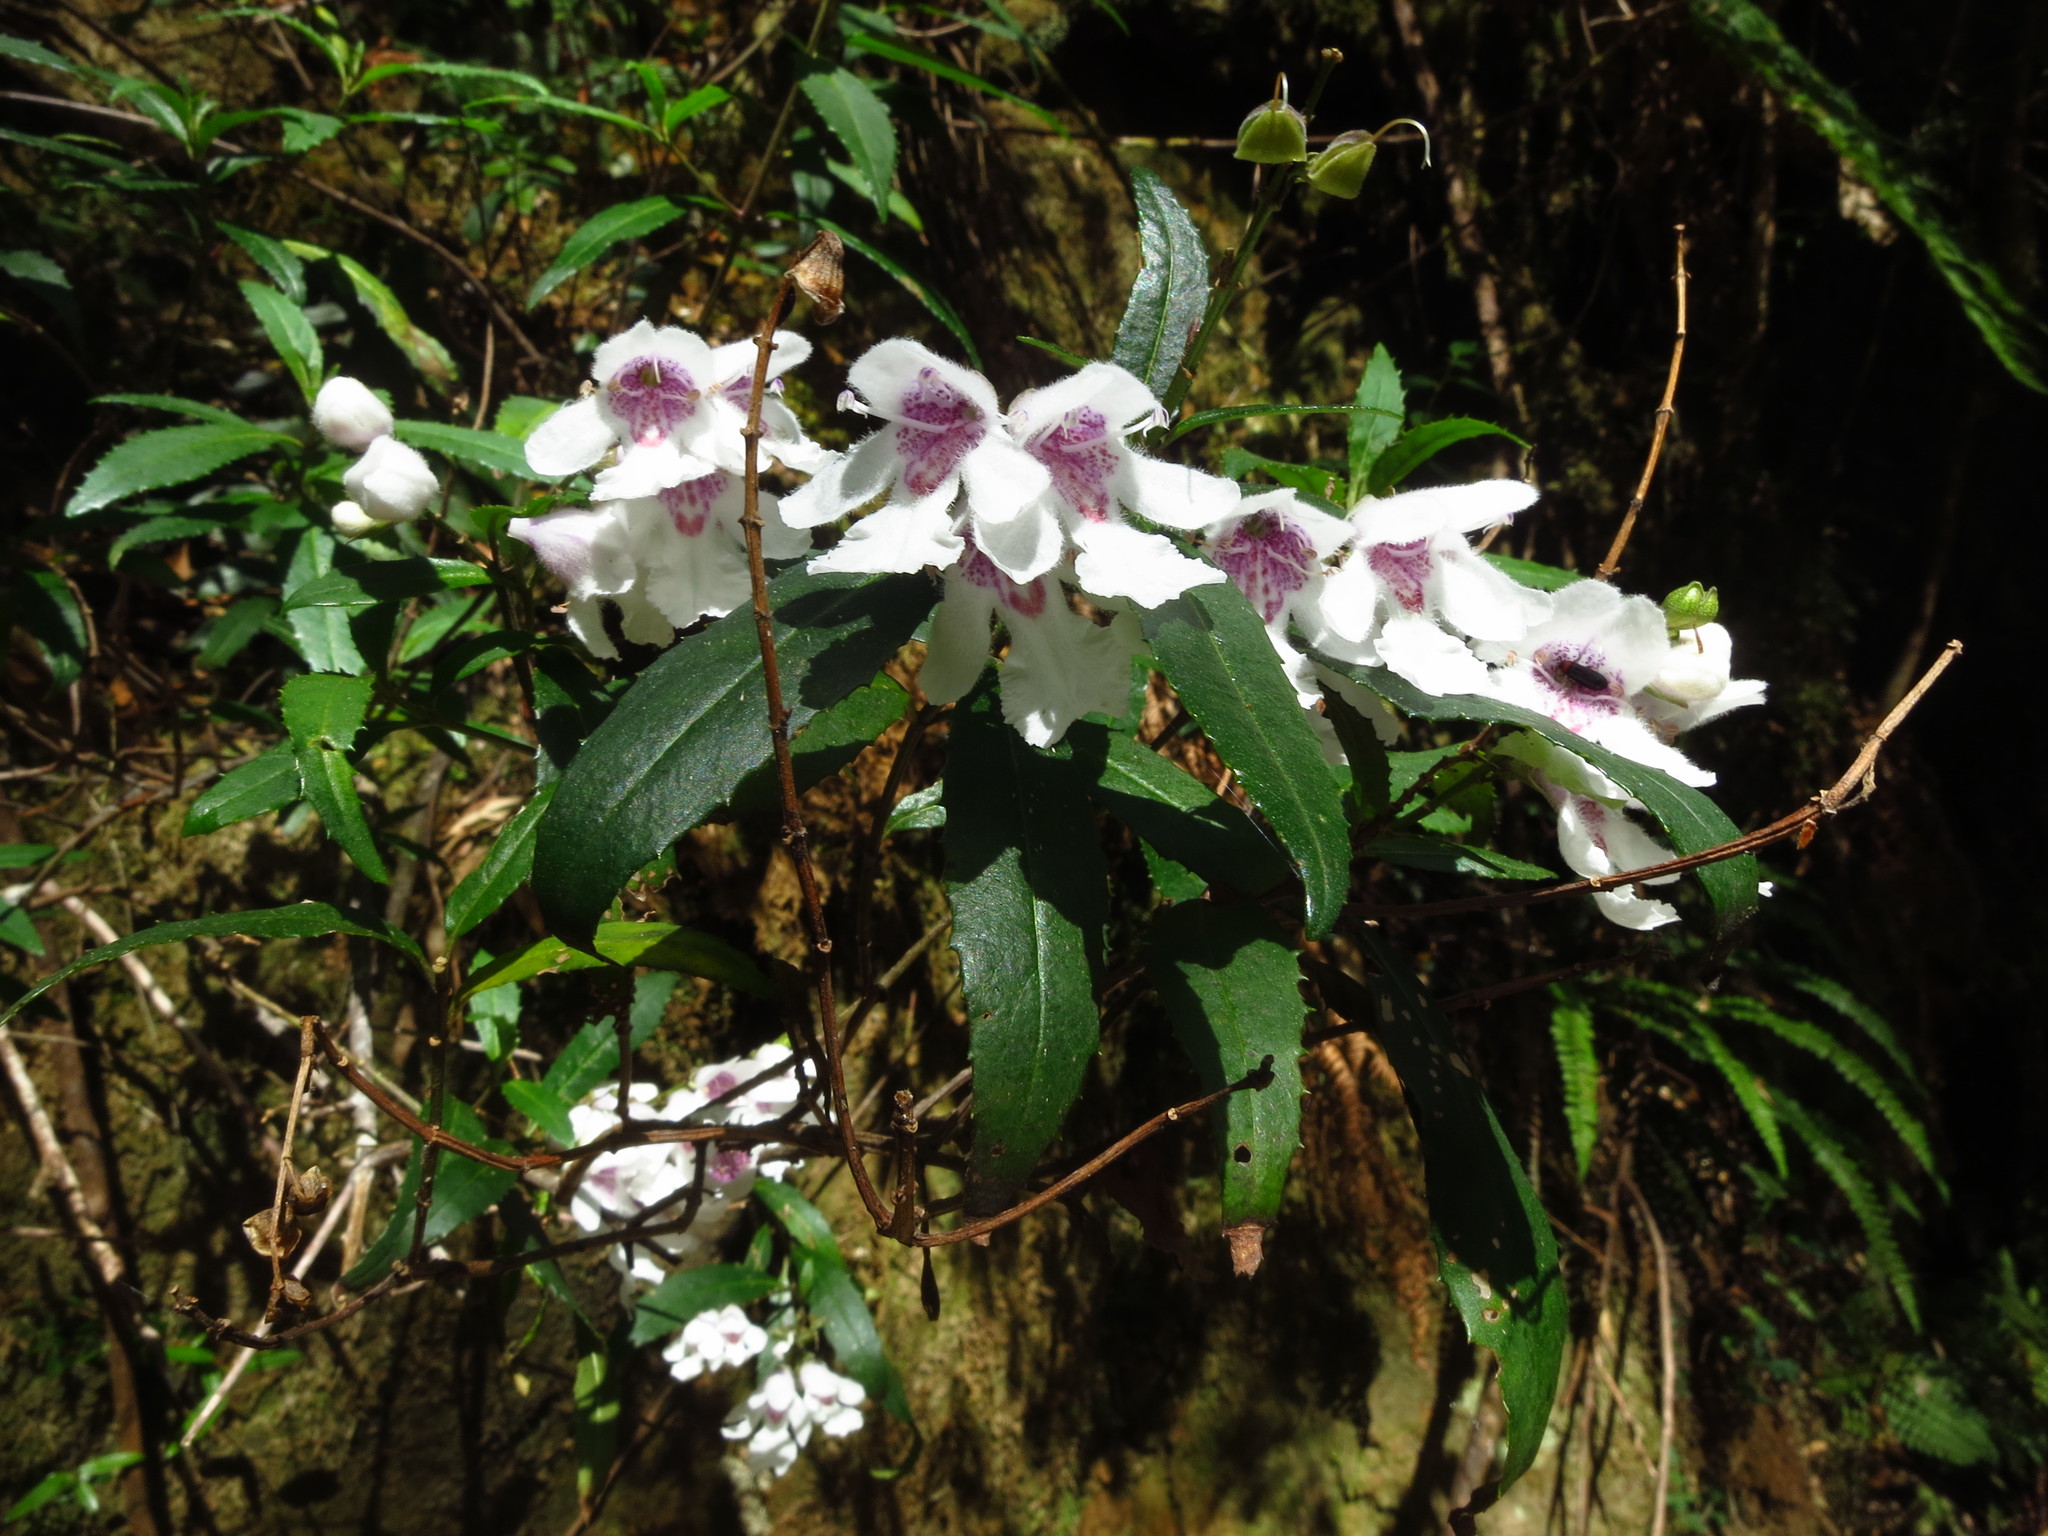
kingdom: Plantae
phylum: Tracheophyta
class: Magnoliopsida
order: Lamiales
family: Lamiaceae
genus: Prostanthera
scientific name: Prostanthera lasianthos
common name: Mountain-lilac
